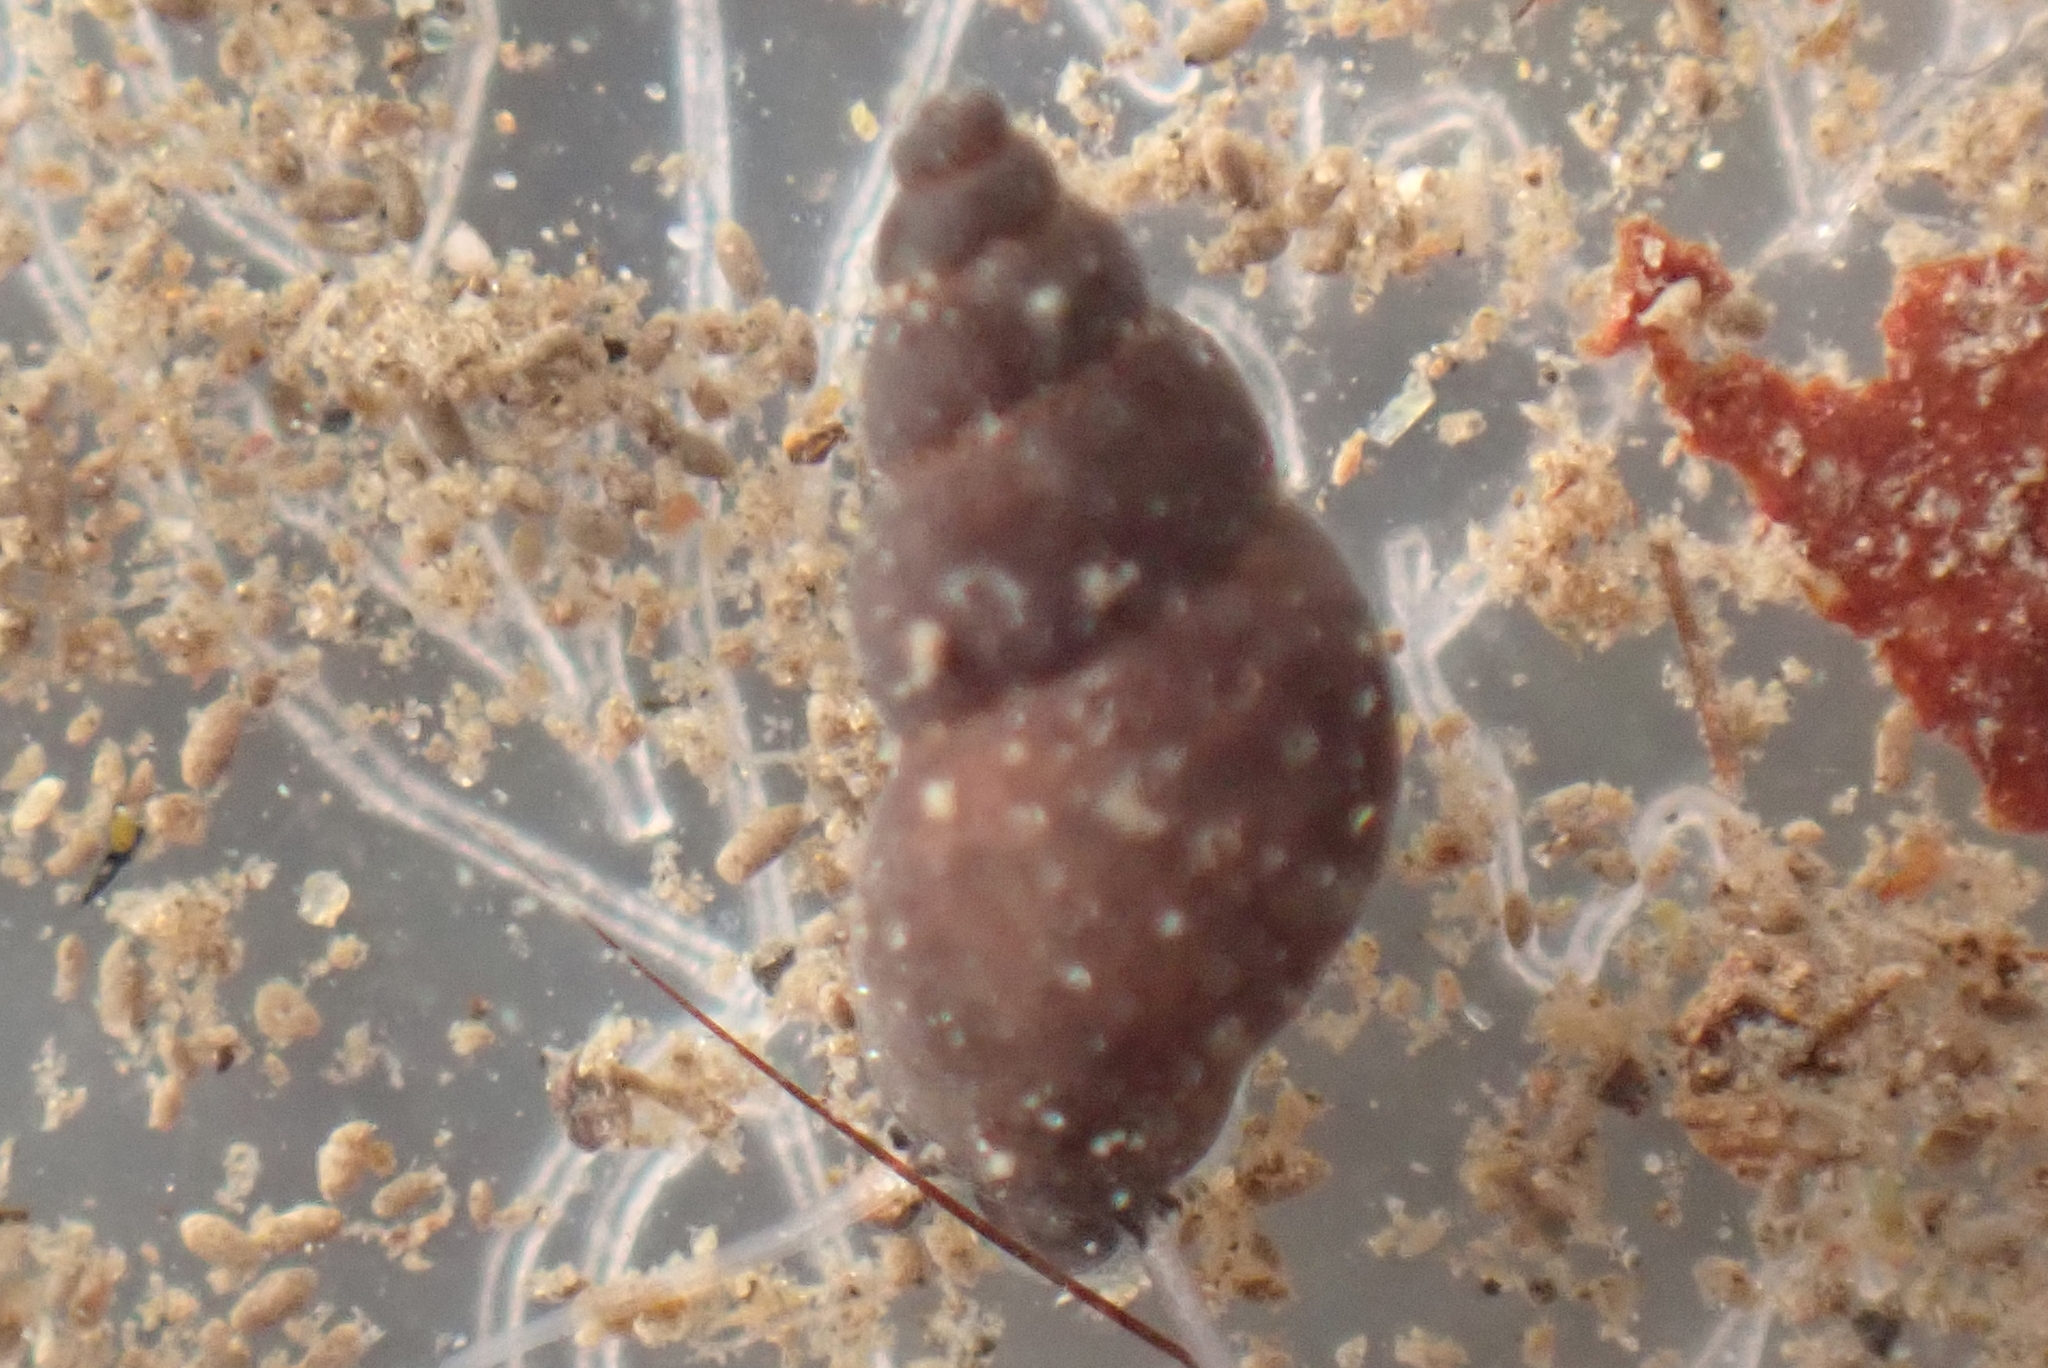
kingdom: Animalia
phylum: Mollusca
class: Gastropoda
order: Littorinimorpha
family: Tateidae
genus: Potamopyrgus
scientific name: Potamopyrgus antipodarum
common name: Jenkins' spire snail
